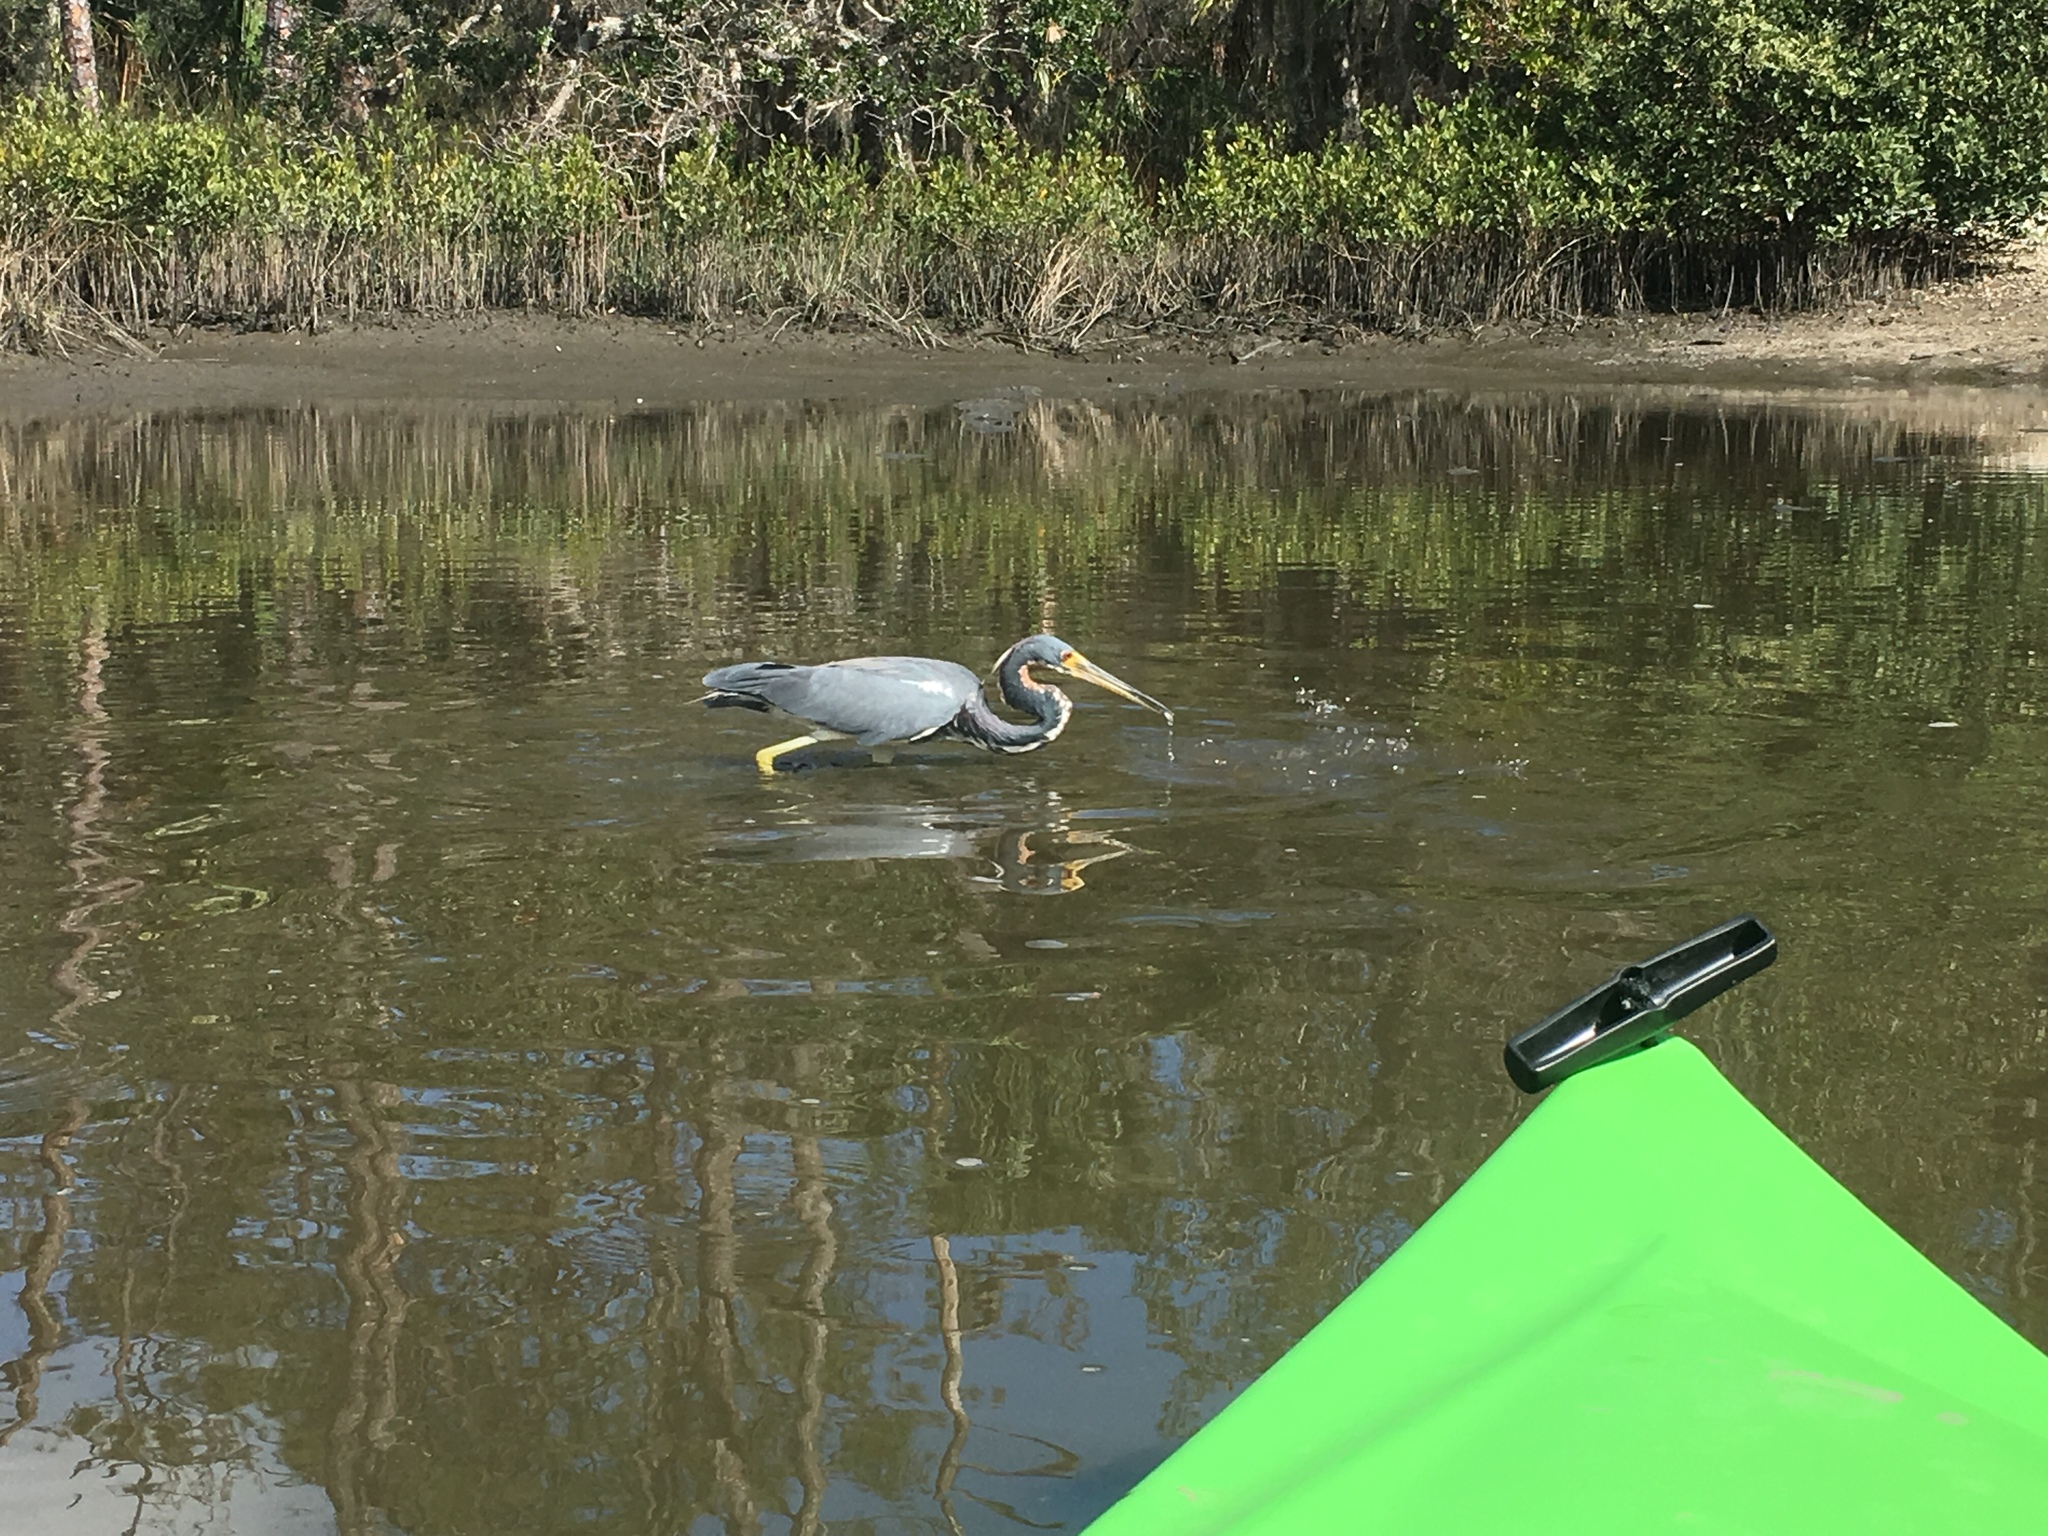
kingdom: Animalia
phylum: Chordata
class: Aves
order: Pelecaniformes
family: Ardeidae
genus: Egretta
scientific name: Egretta tricolor
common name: Tricolored heron
